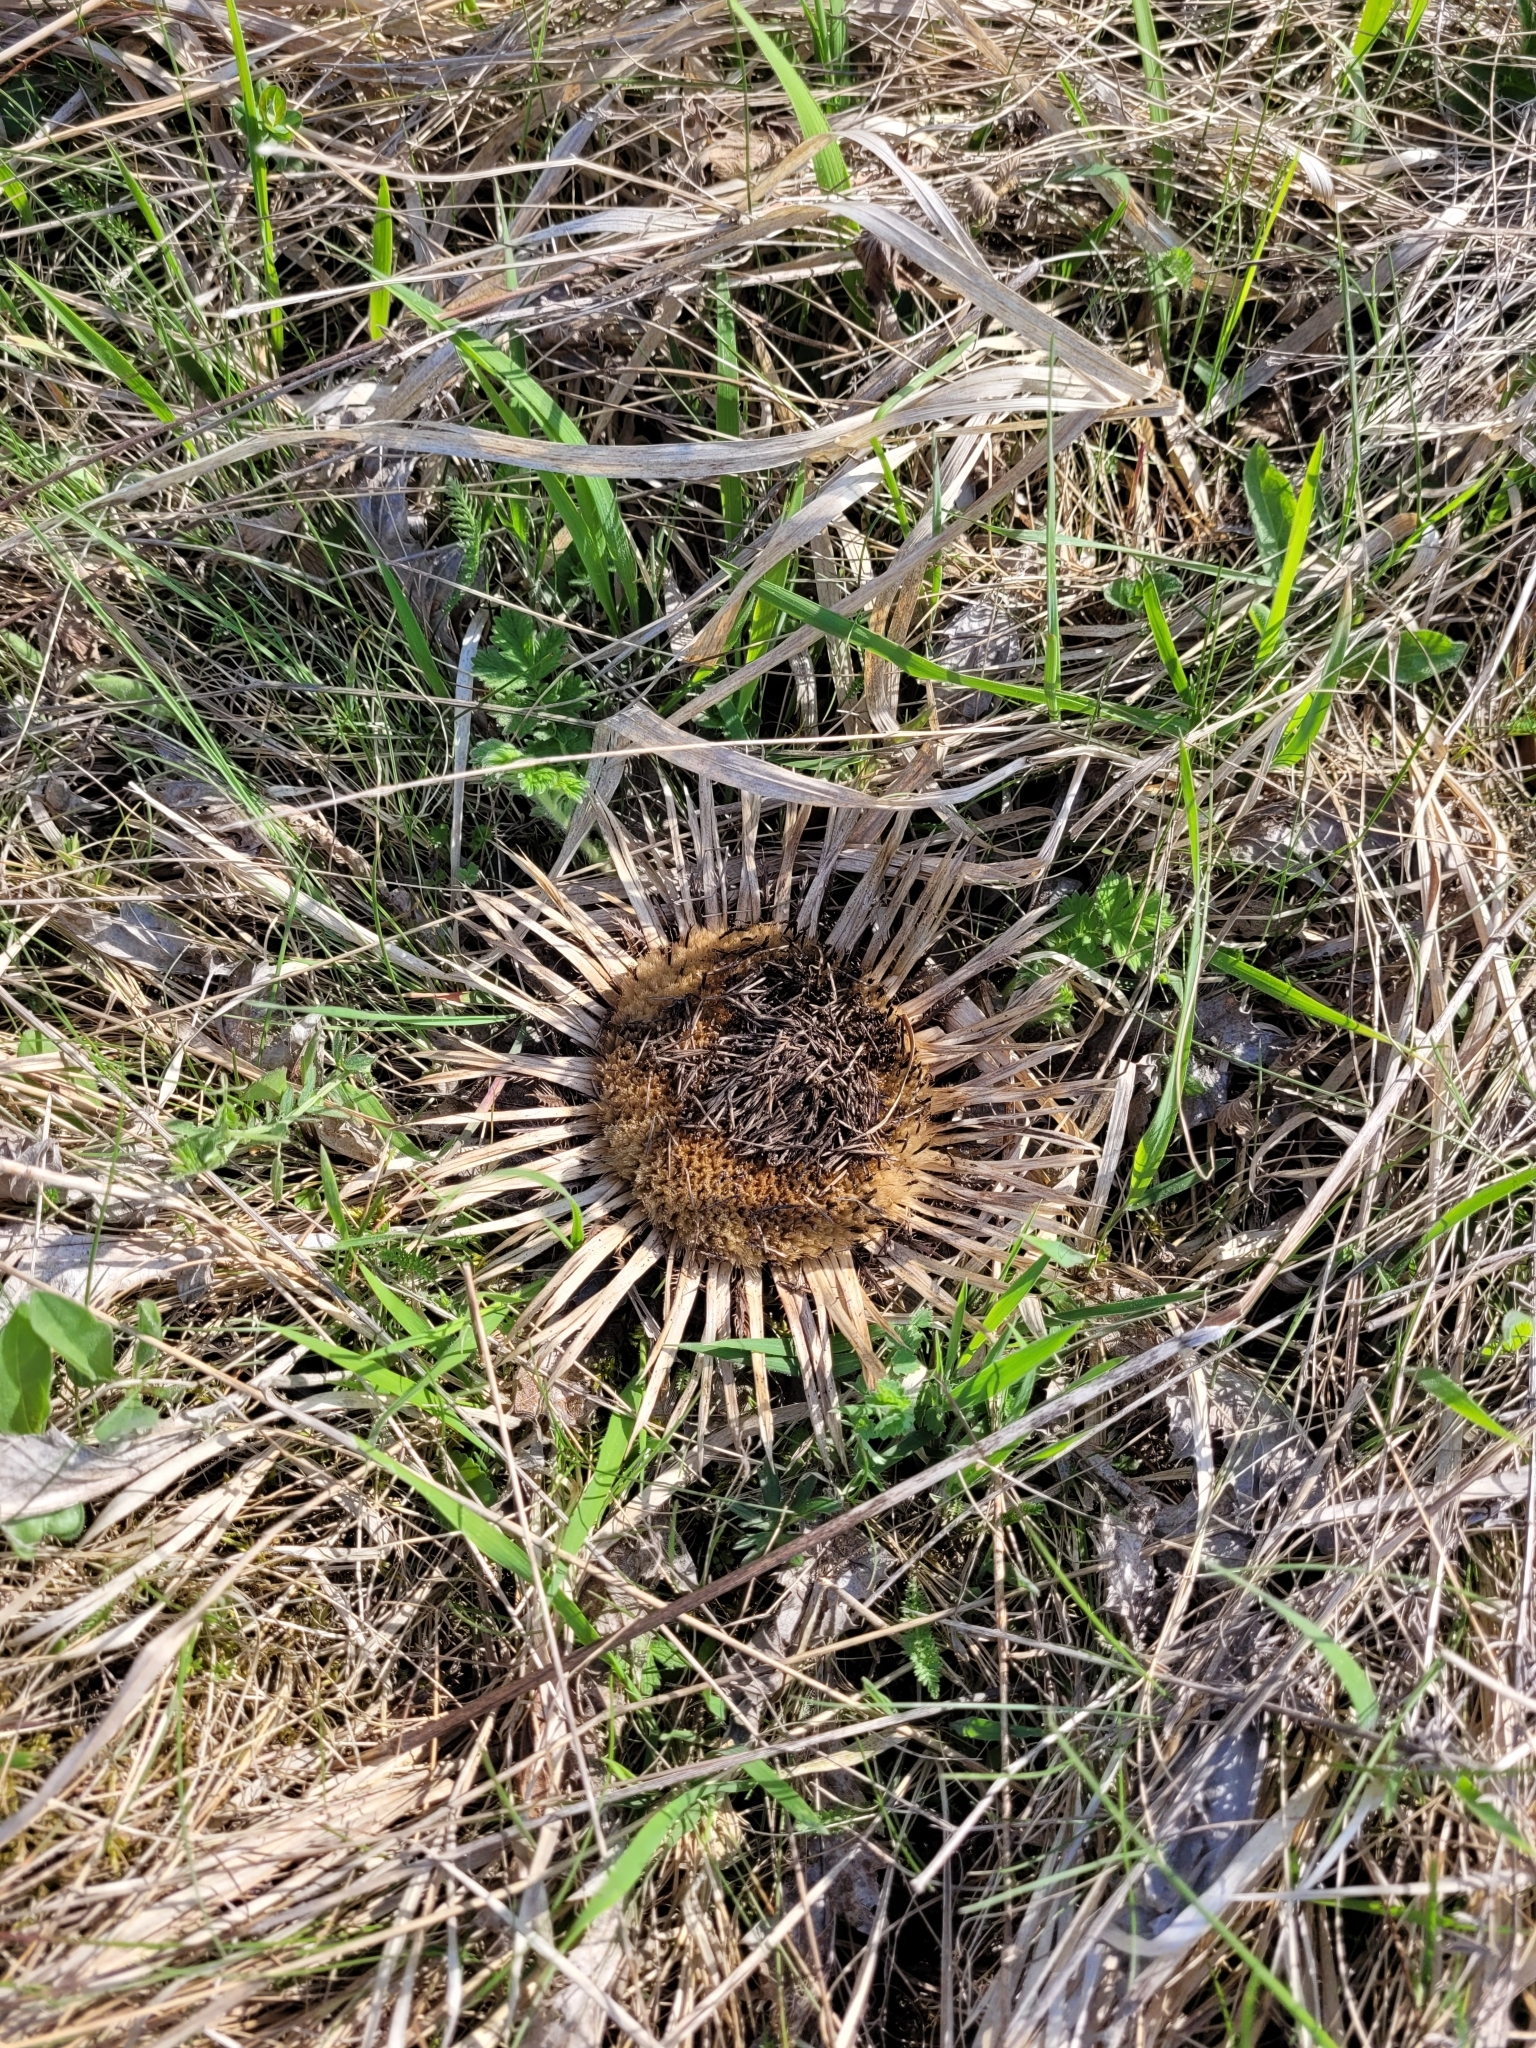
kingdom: Plantae
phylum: Tracheophyta
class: Magnoliopsida
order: Asterales
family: Asteraceae
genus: Carlina
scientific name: Carlina acanthifolia
